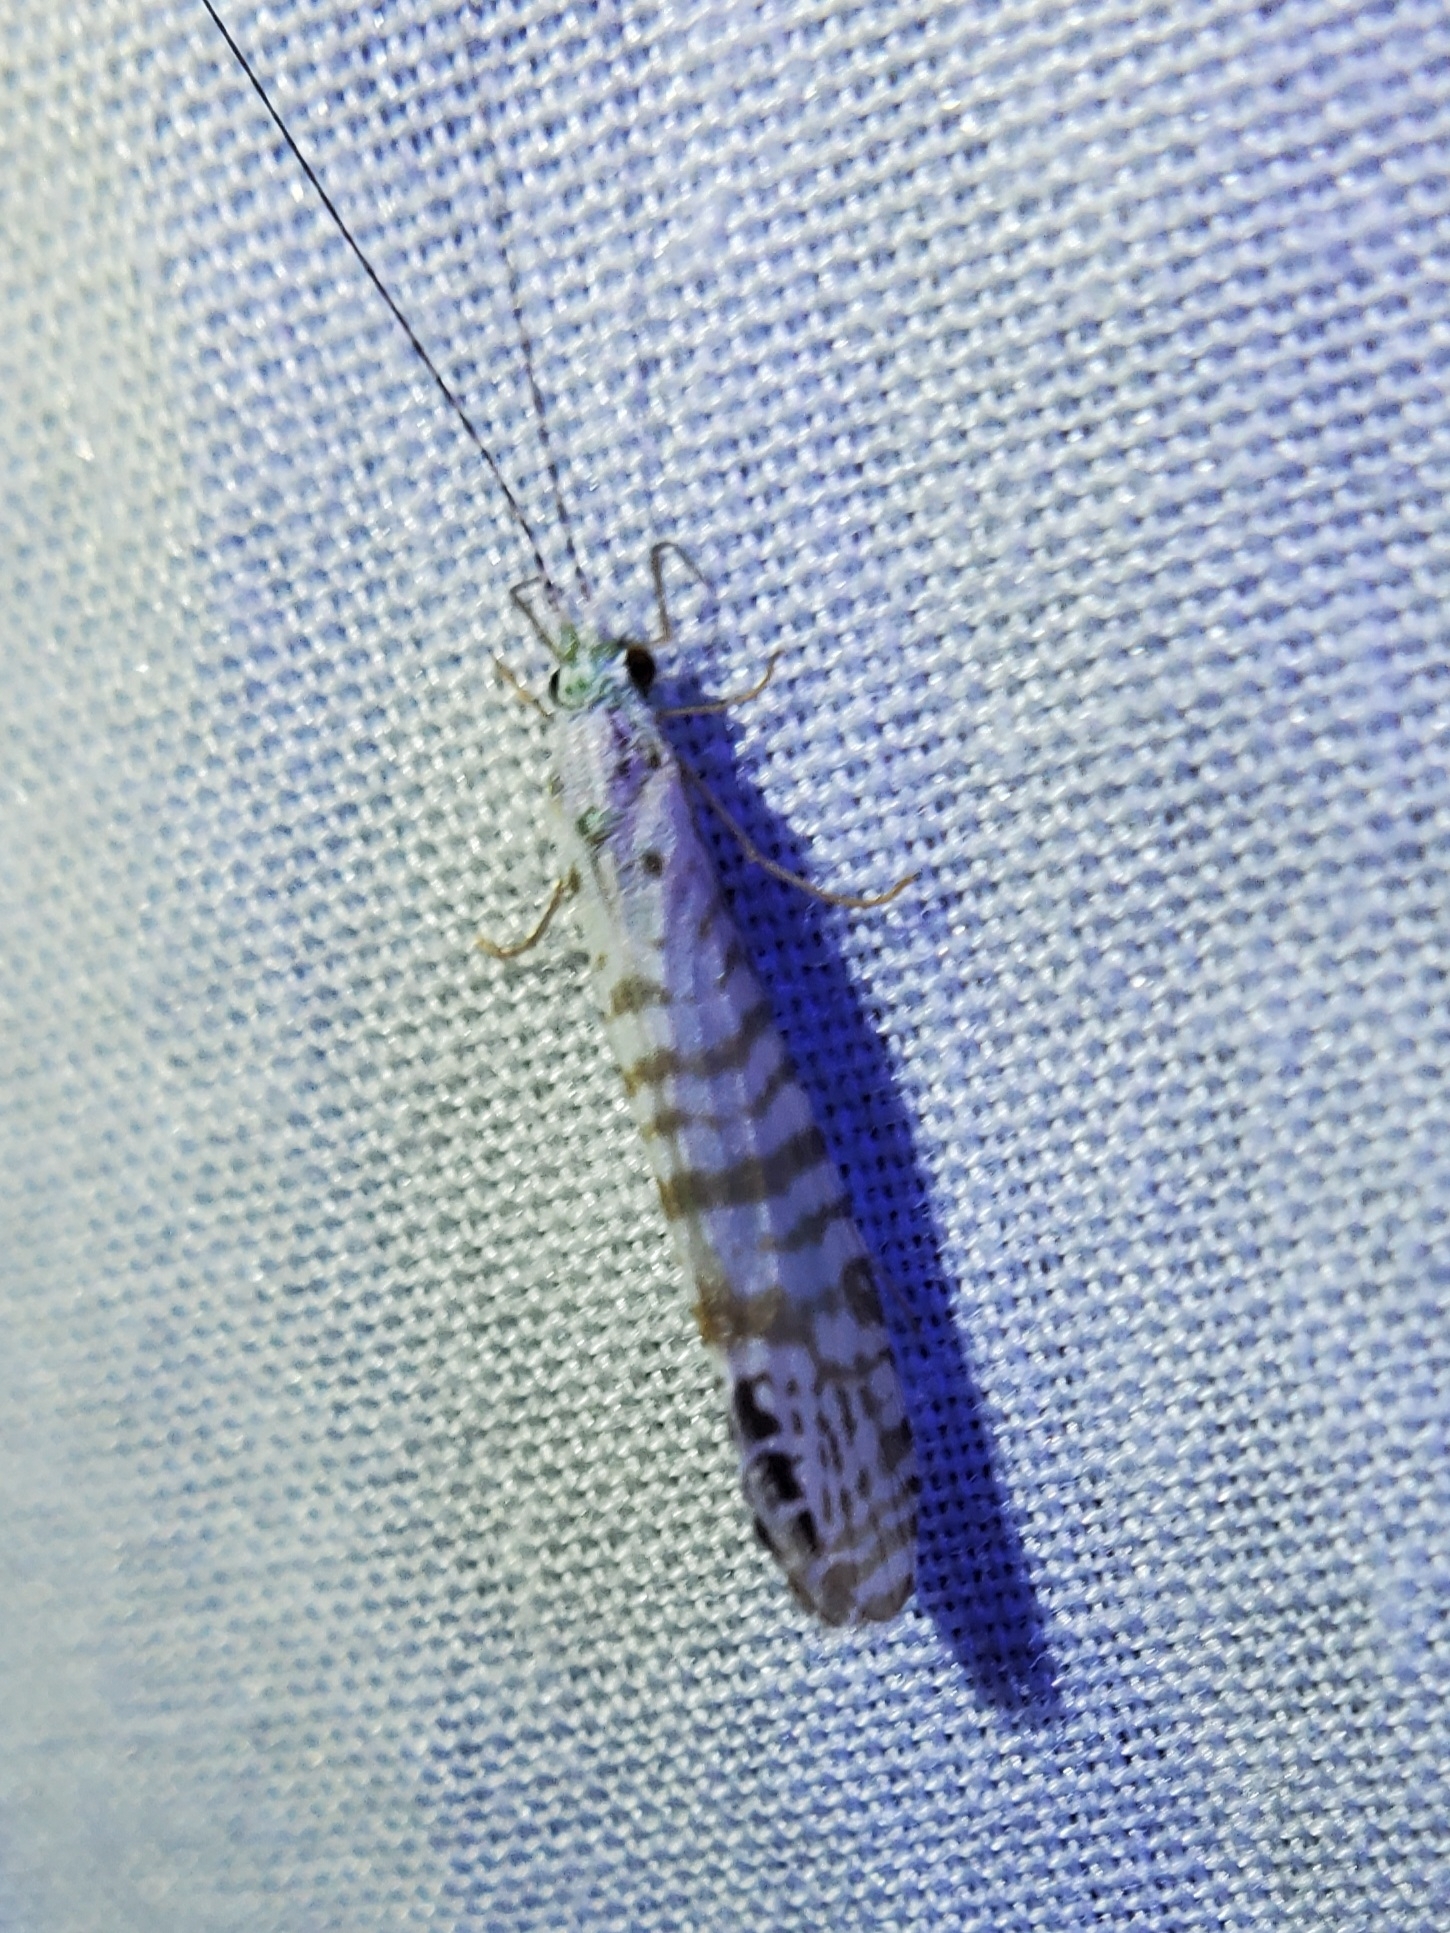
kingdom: Animalia
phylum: Arthropoda
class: Insecta
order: Trichoptera
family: Leptoceridae
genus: Nectopsyche
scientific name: Nectopsyche exquisita
